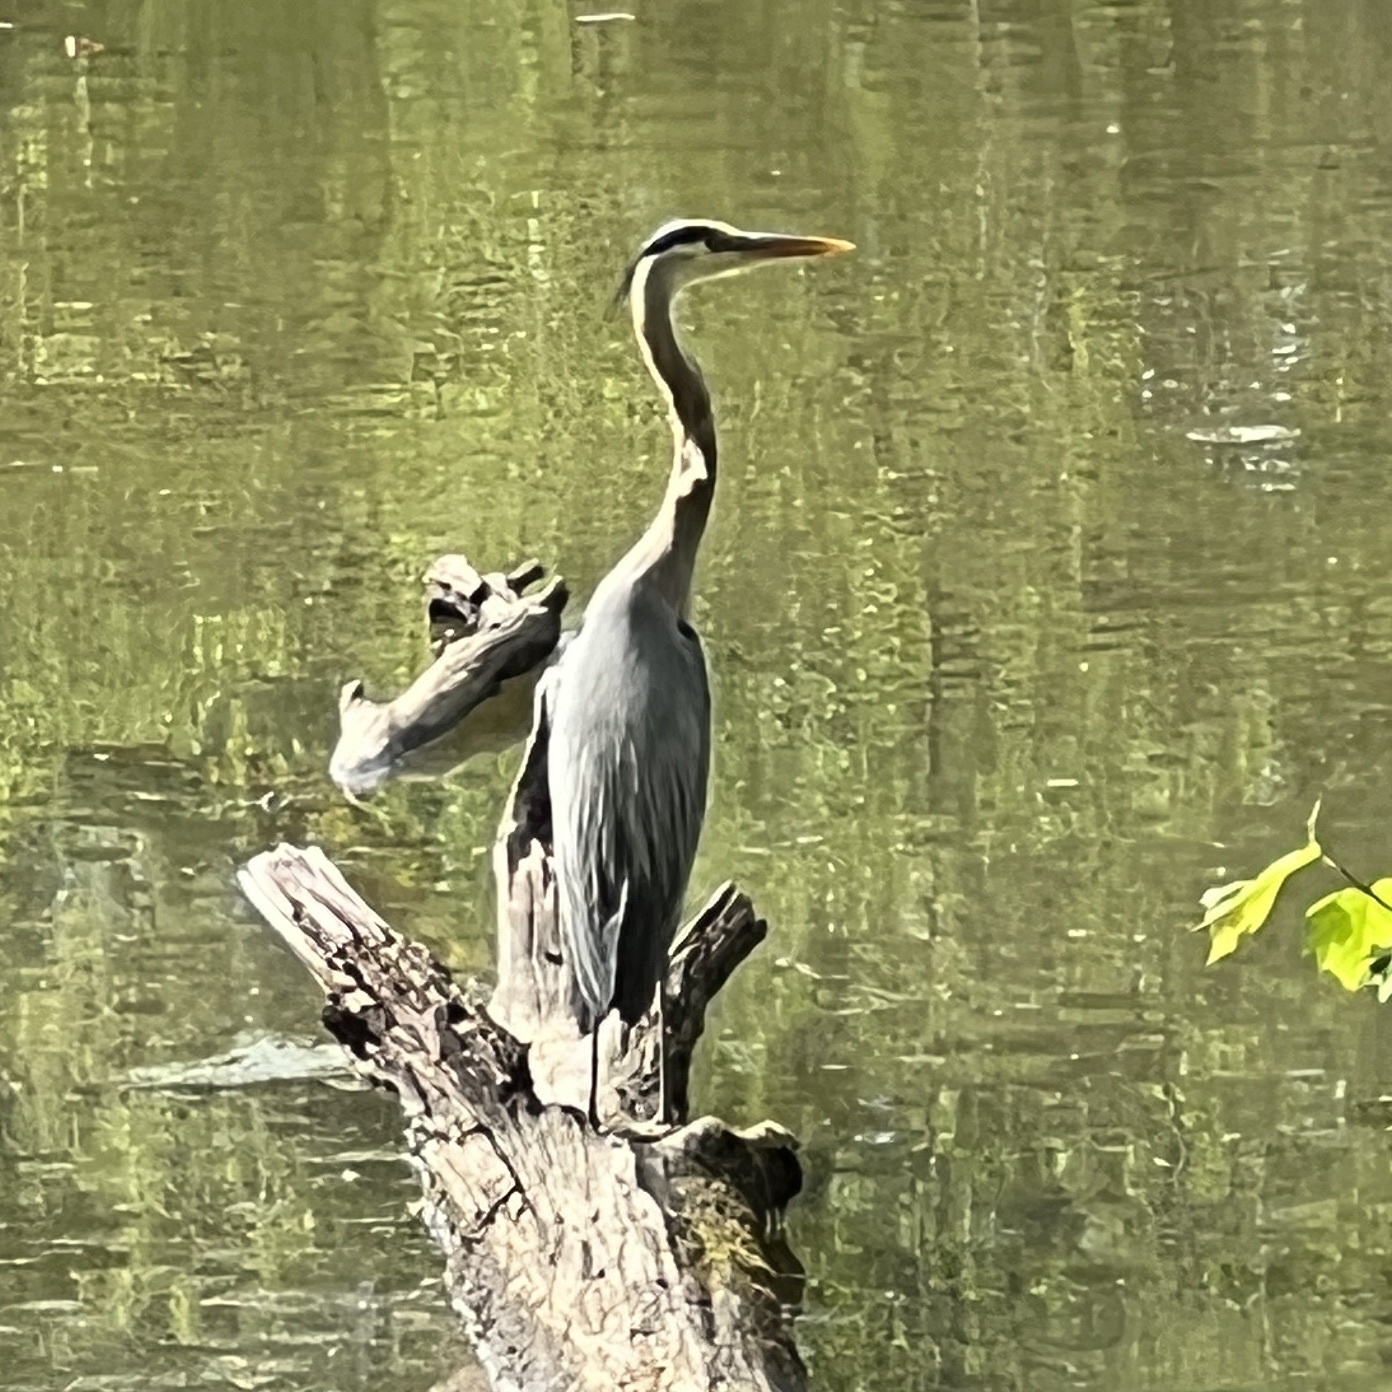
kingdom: Animalia
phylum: Chordata
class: Aves
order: Pelecaniformes
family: Ardeidae
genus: Ardea
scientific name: Ardea herodias
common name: Great blue heron
